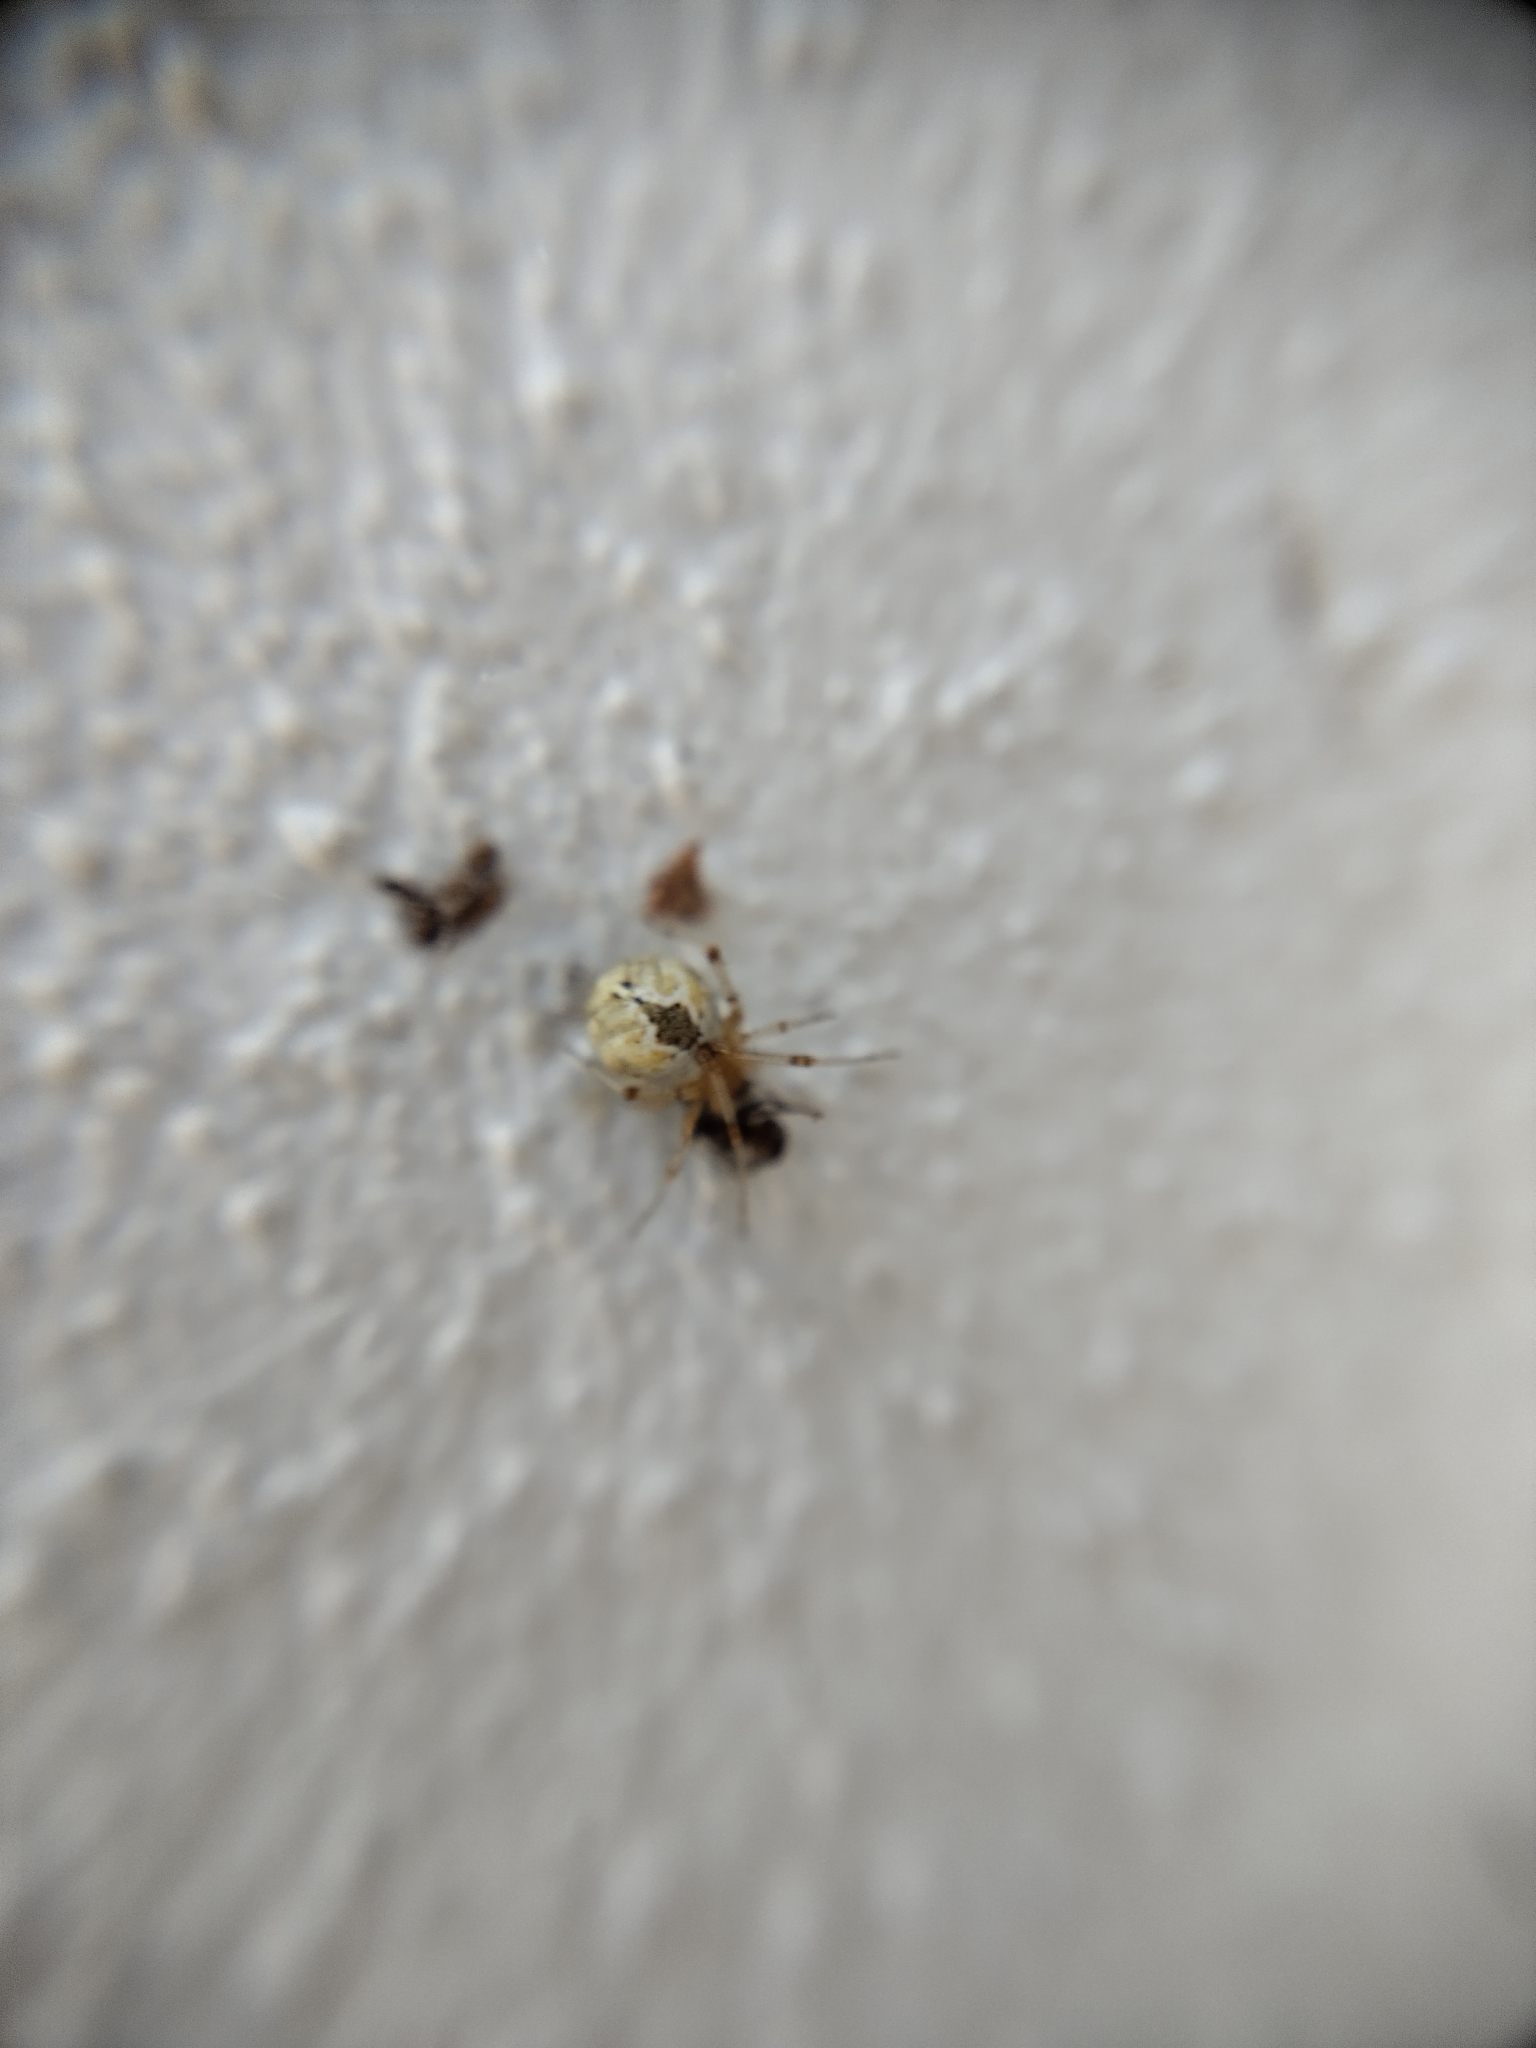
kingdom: Animalia
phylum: Arthropoda
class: Arachnida
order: Araneae
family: Theridiidae
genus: Cryptachaea
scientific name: Cryptachaea veruculata
